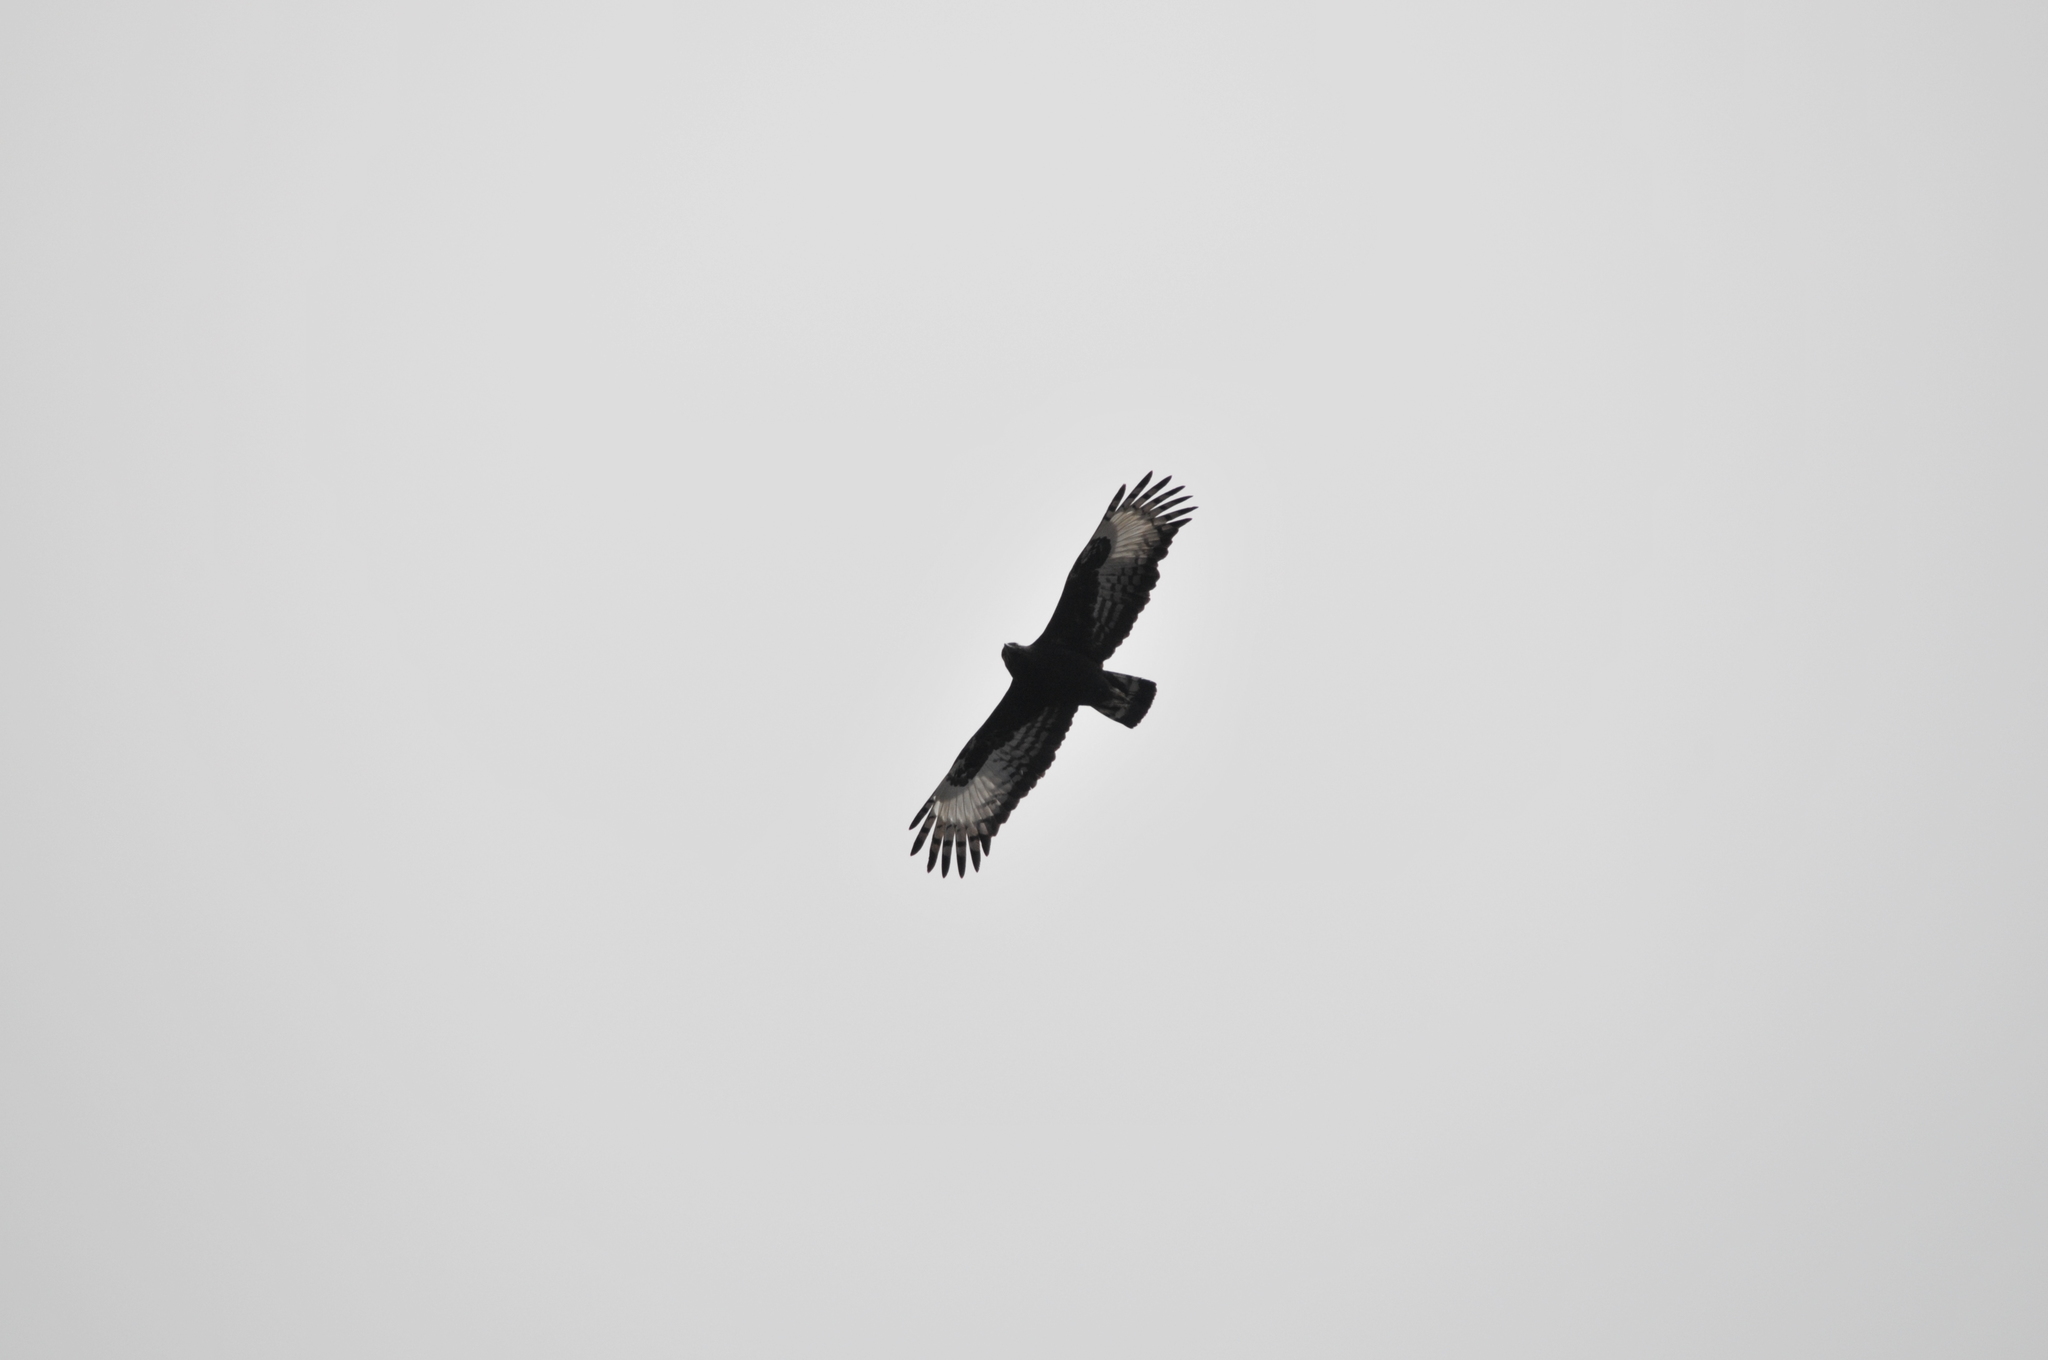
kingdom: Animalia
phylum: Chordata
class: Aves
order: Accipitriformes
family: Accipitridae
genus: Lophaetus
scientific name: Lophaetus occipitalis
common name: Long-crested eagle
